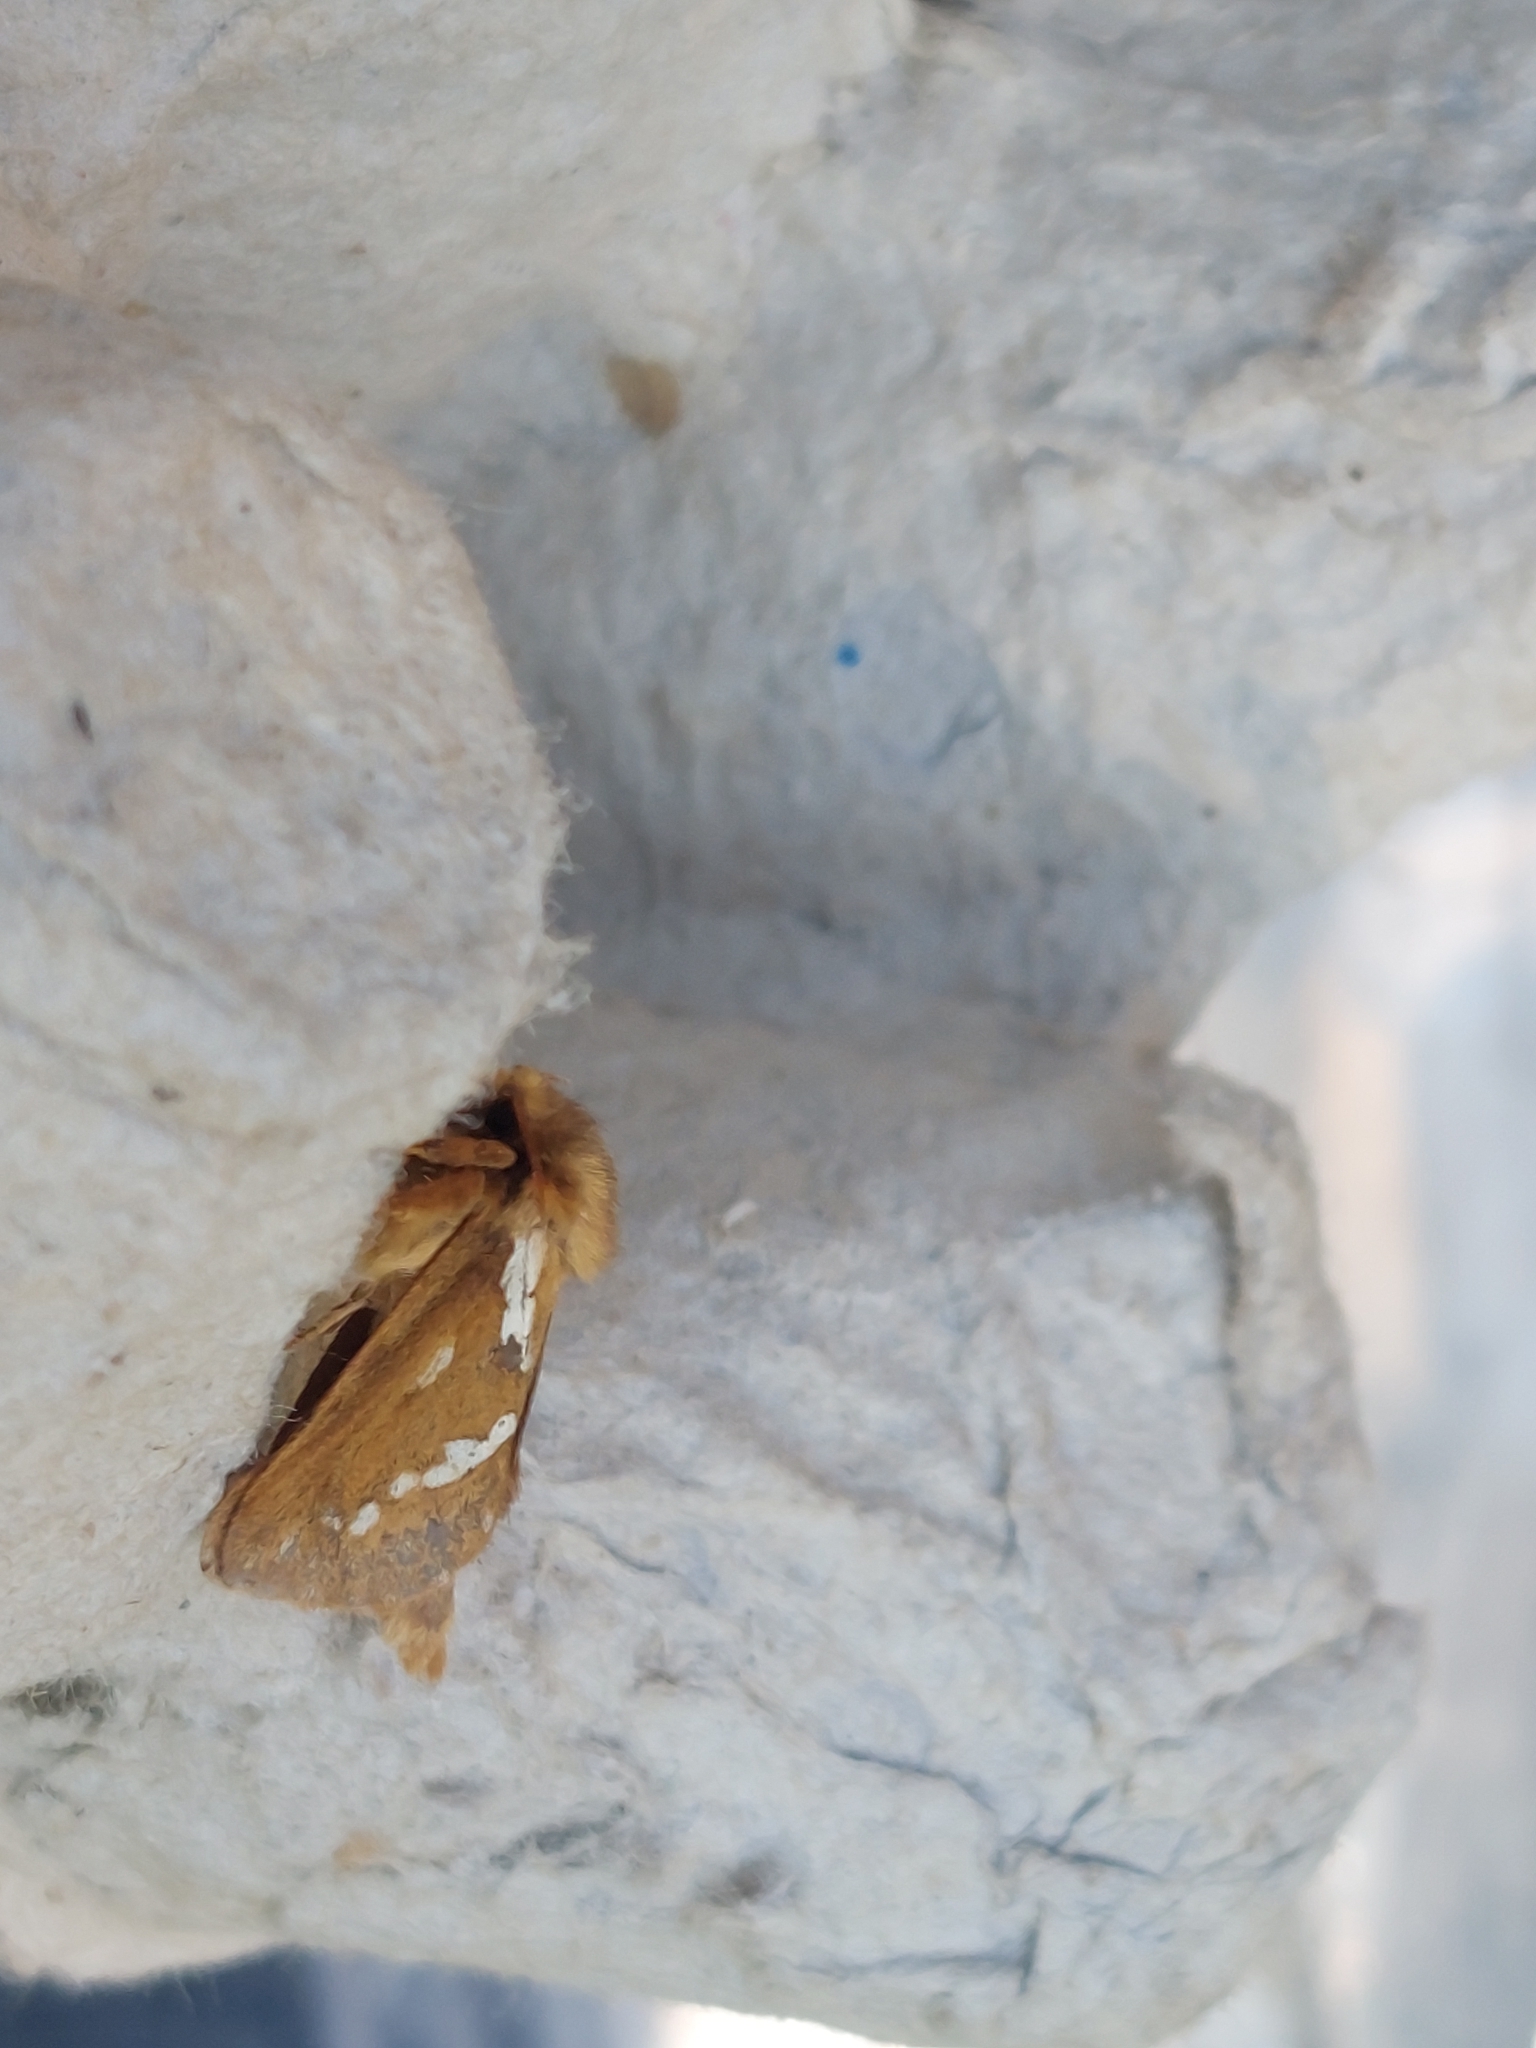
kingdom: Animalia
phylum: Arthropoda
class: Insecta
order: Lepidoptera
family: Hepialidae
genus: Korscheltellus
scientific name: Korscheltellus lupulina
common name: Common swift
